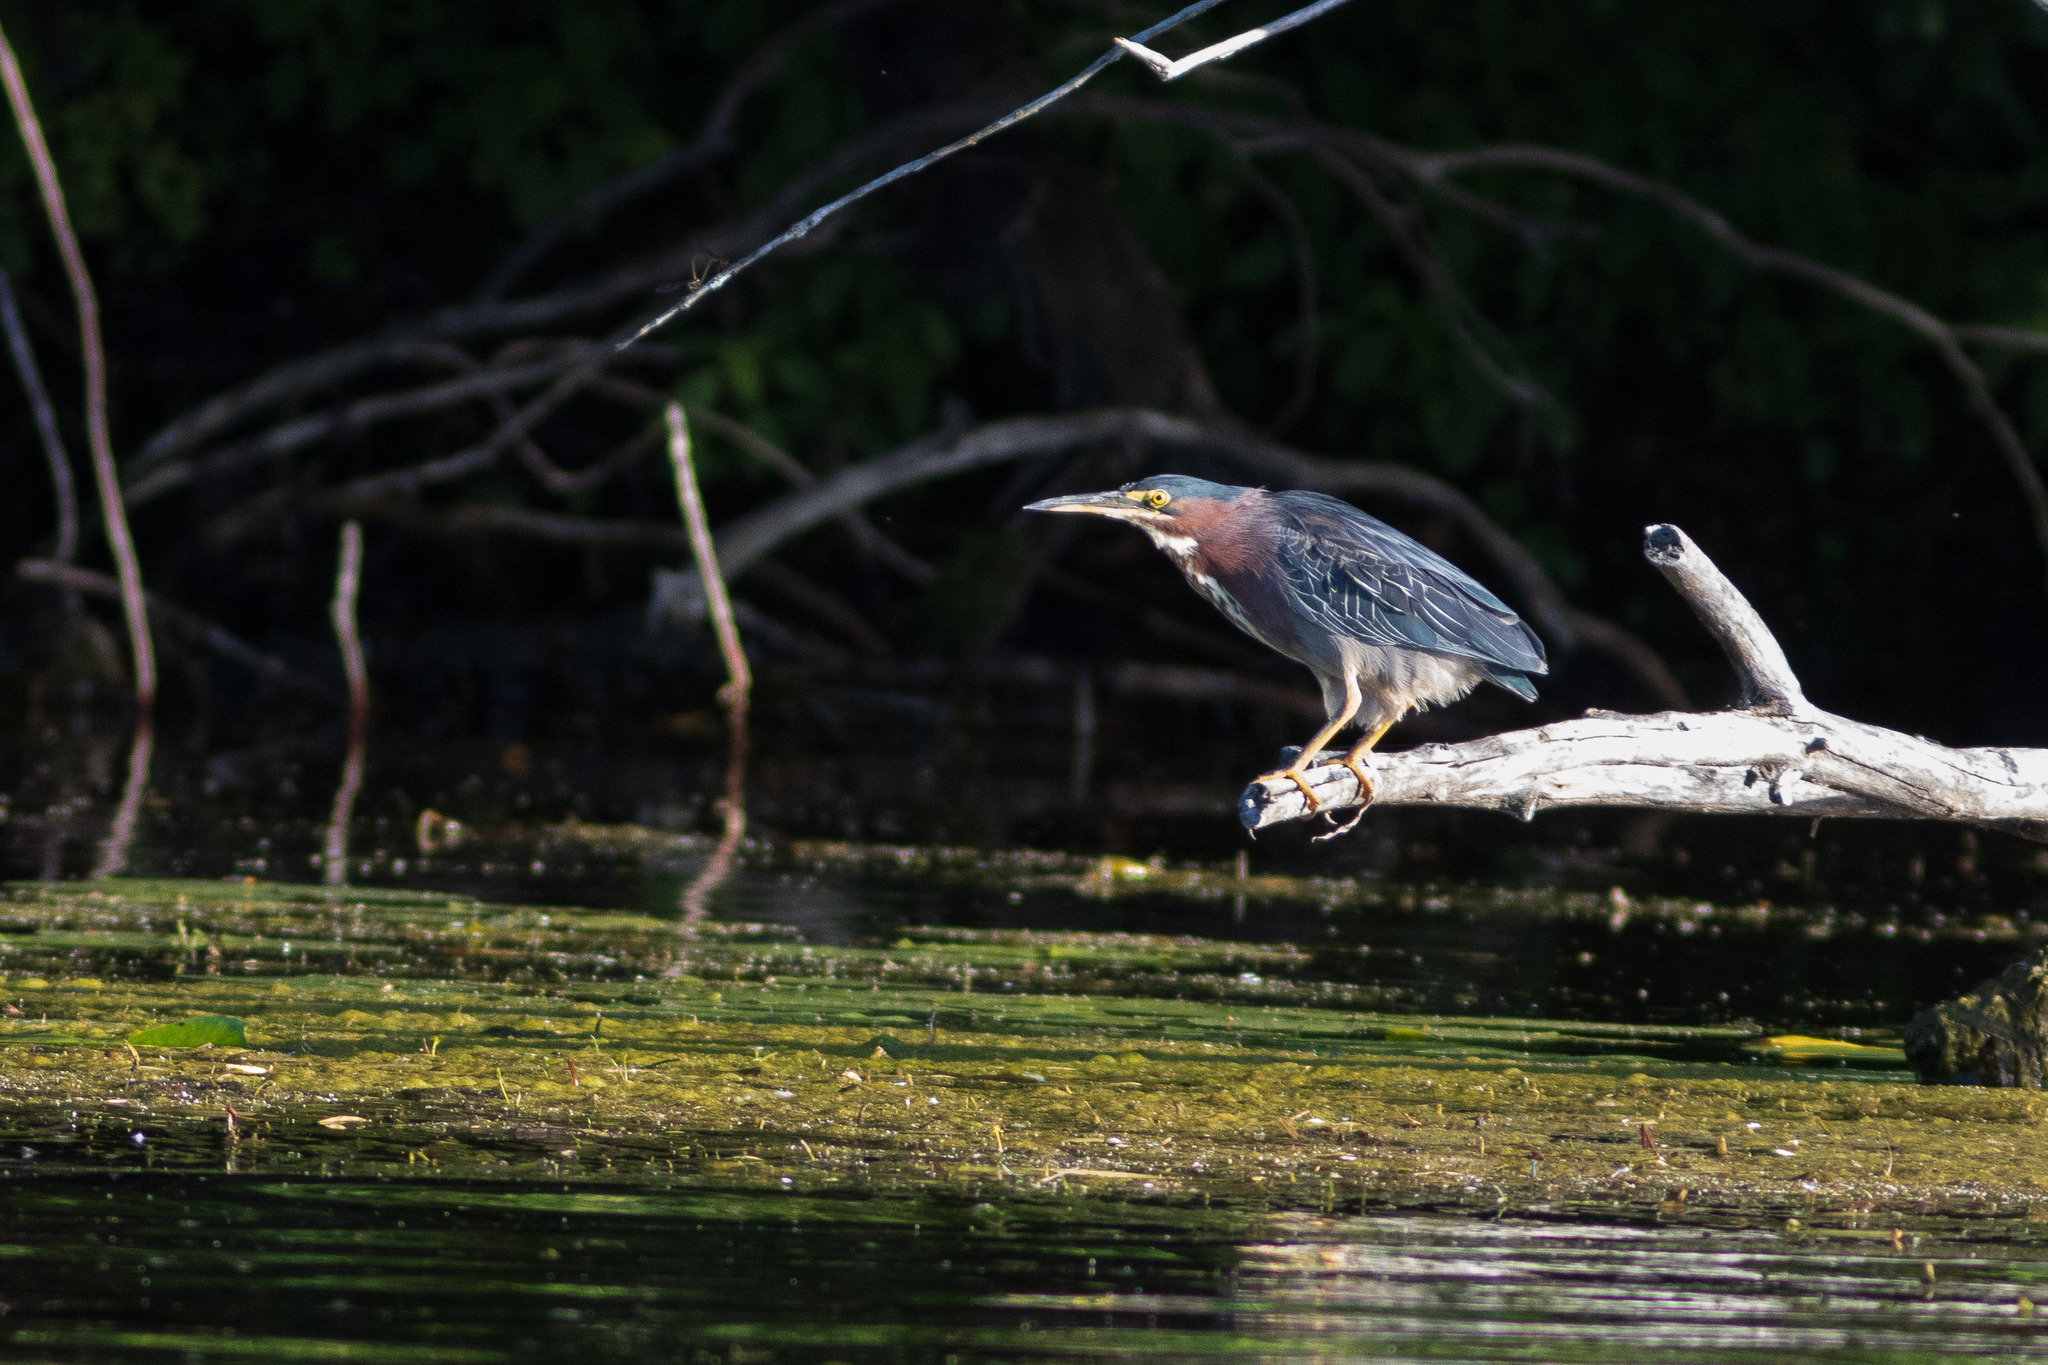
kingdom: Animalia
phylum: Chordata
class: Aves
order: Pelecaniformes
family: Ardeidae
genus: Butorides
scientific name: Butorides virescens
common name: Green heron
